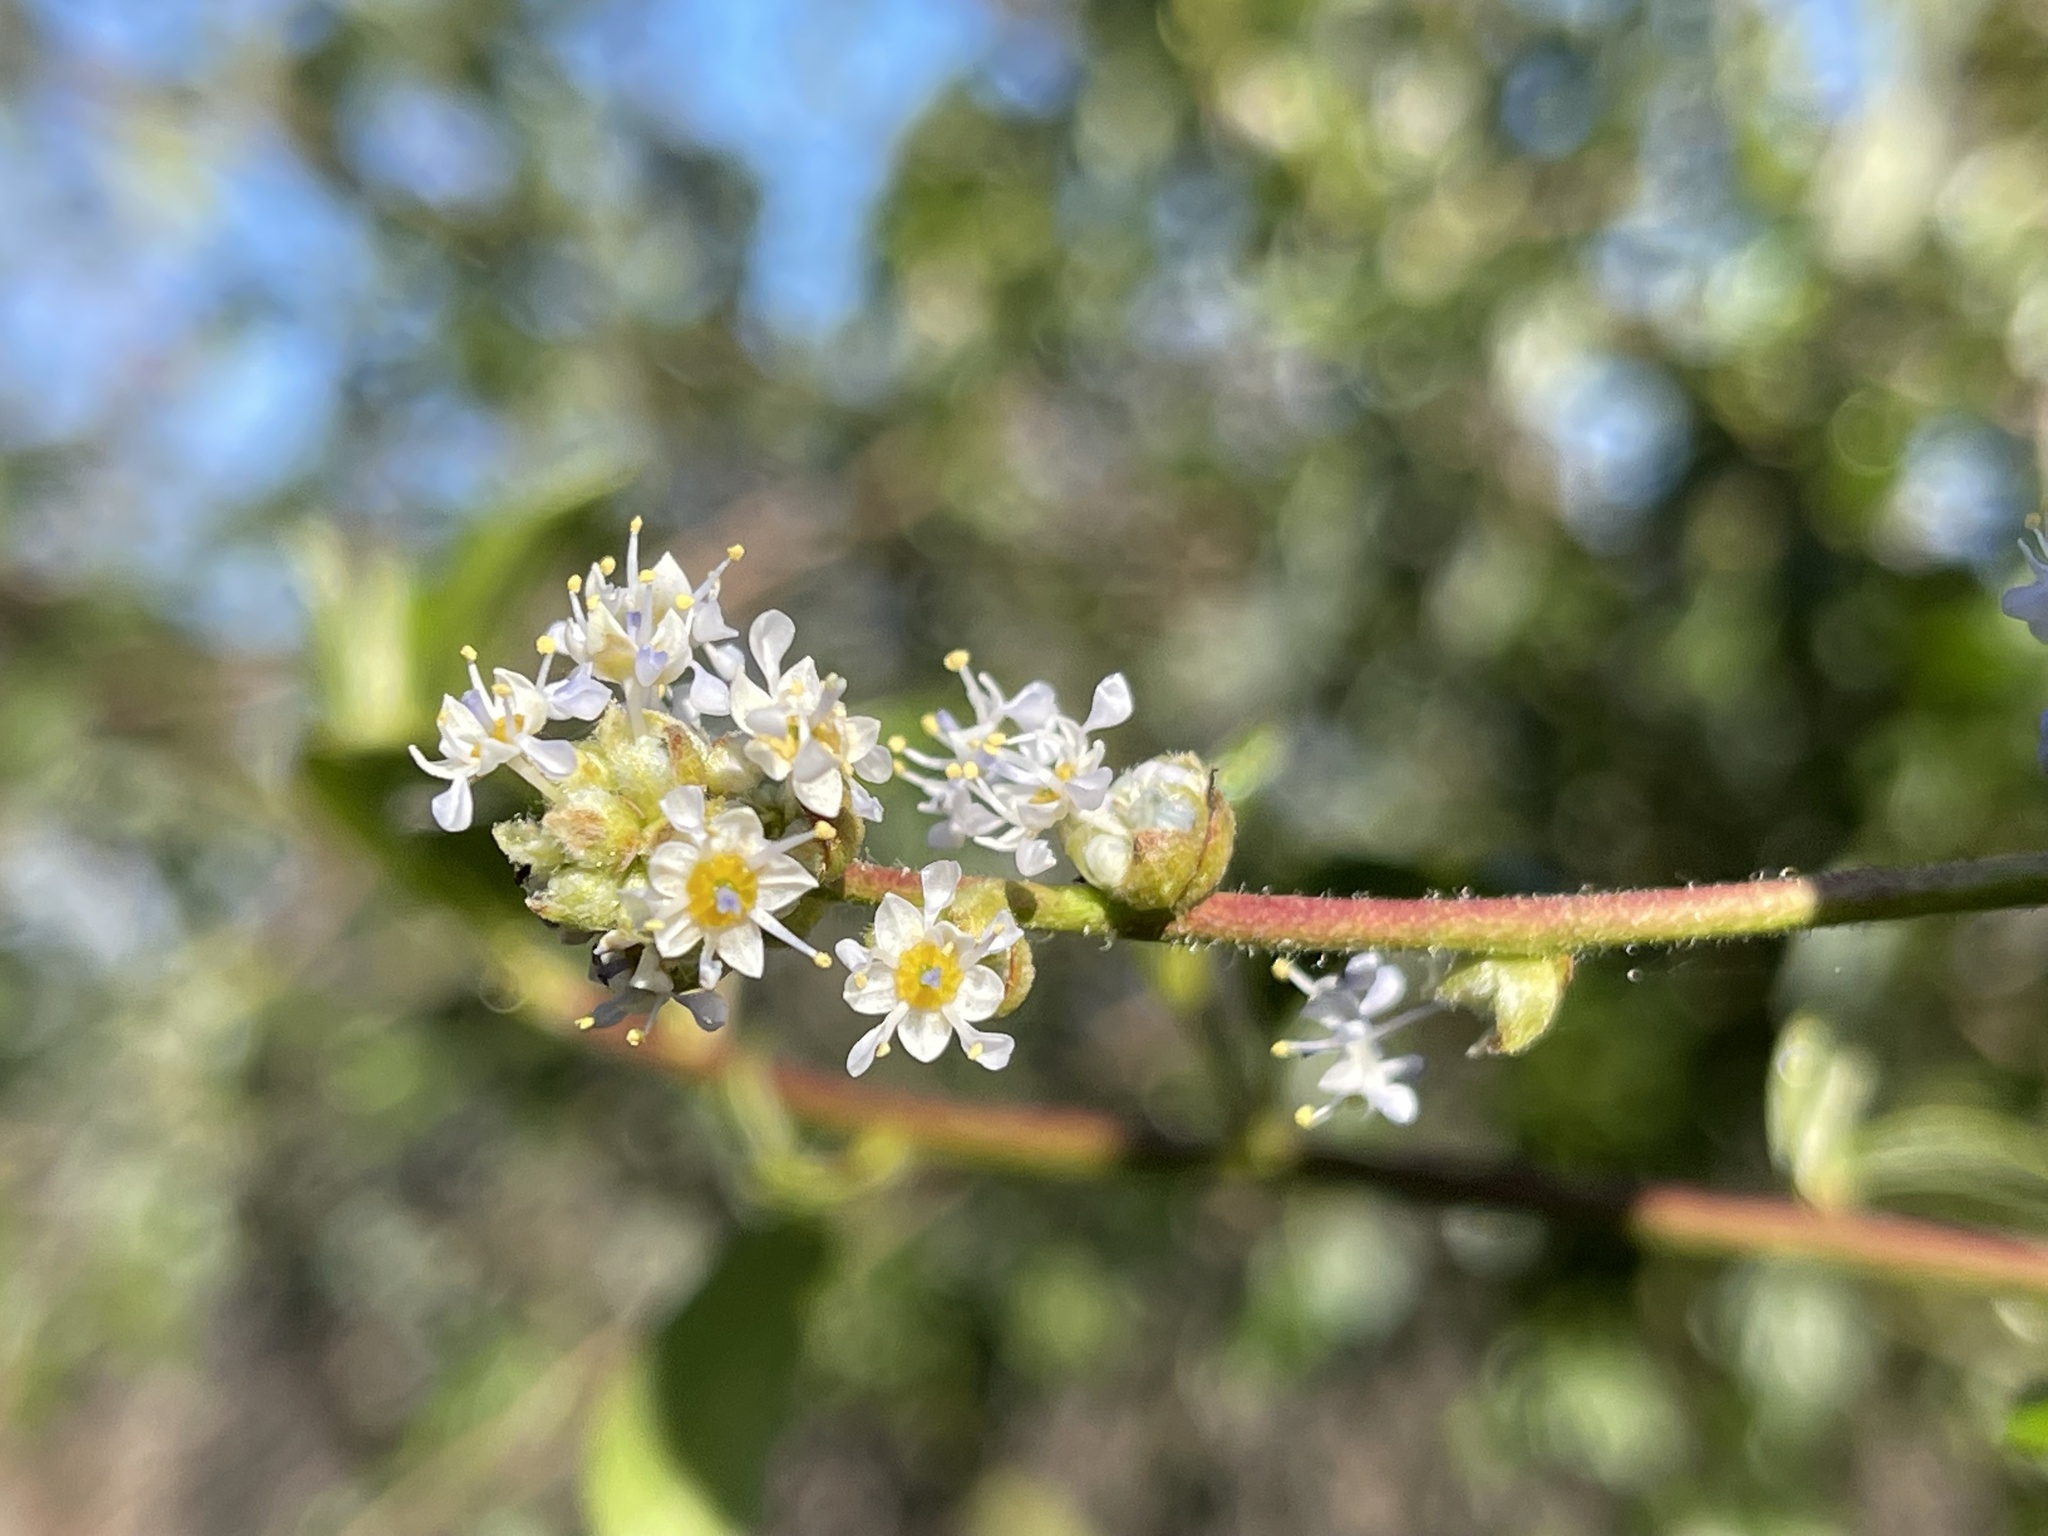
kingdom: Plantae
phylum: Tracheophyta
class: Magnoliopsida
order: Rosales
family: Rhamnaceae
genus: Ceanothus
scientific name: Ceanothus oliganthus
